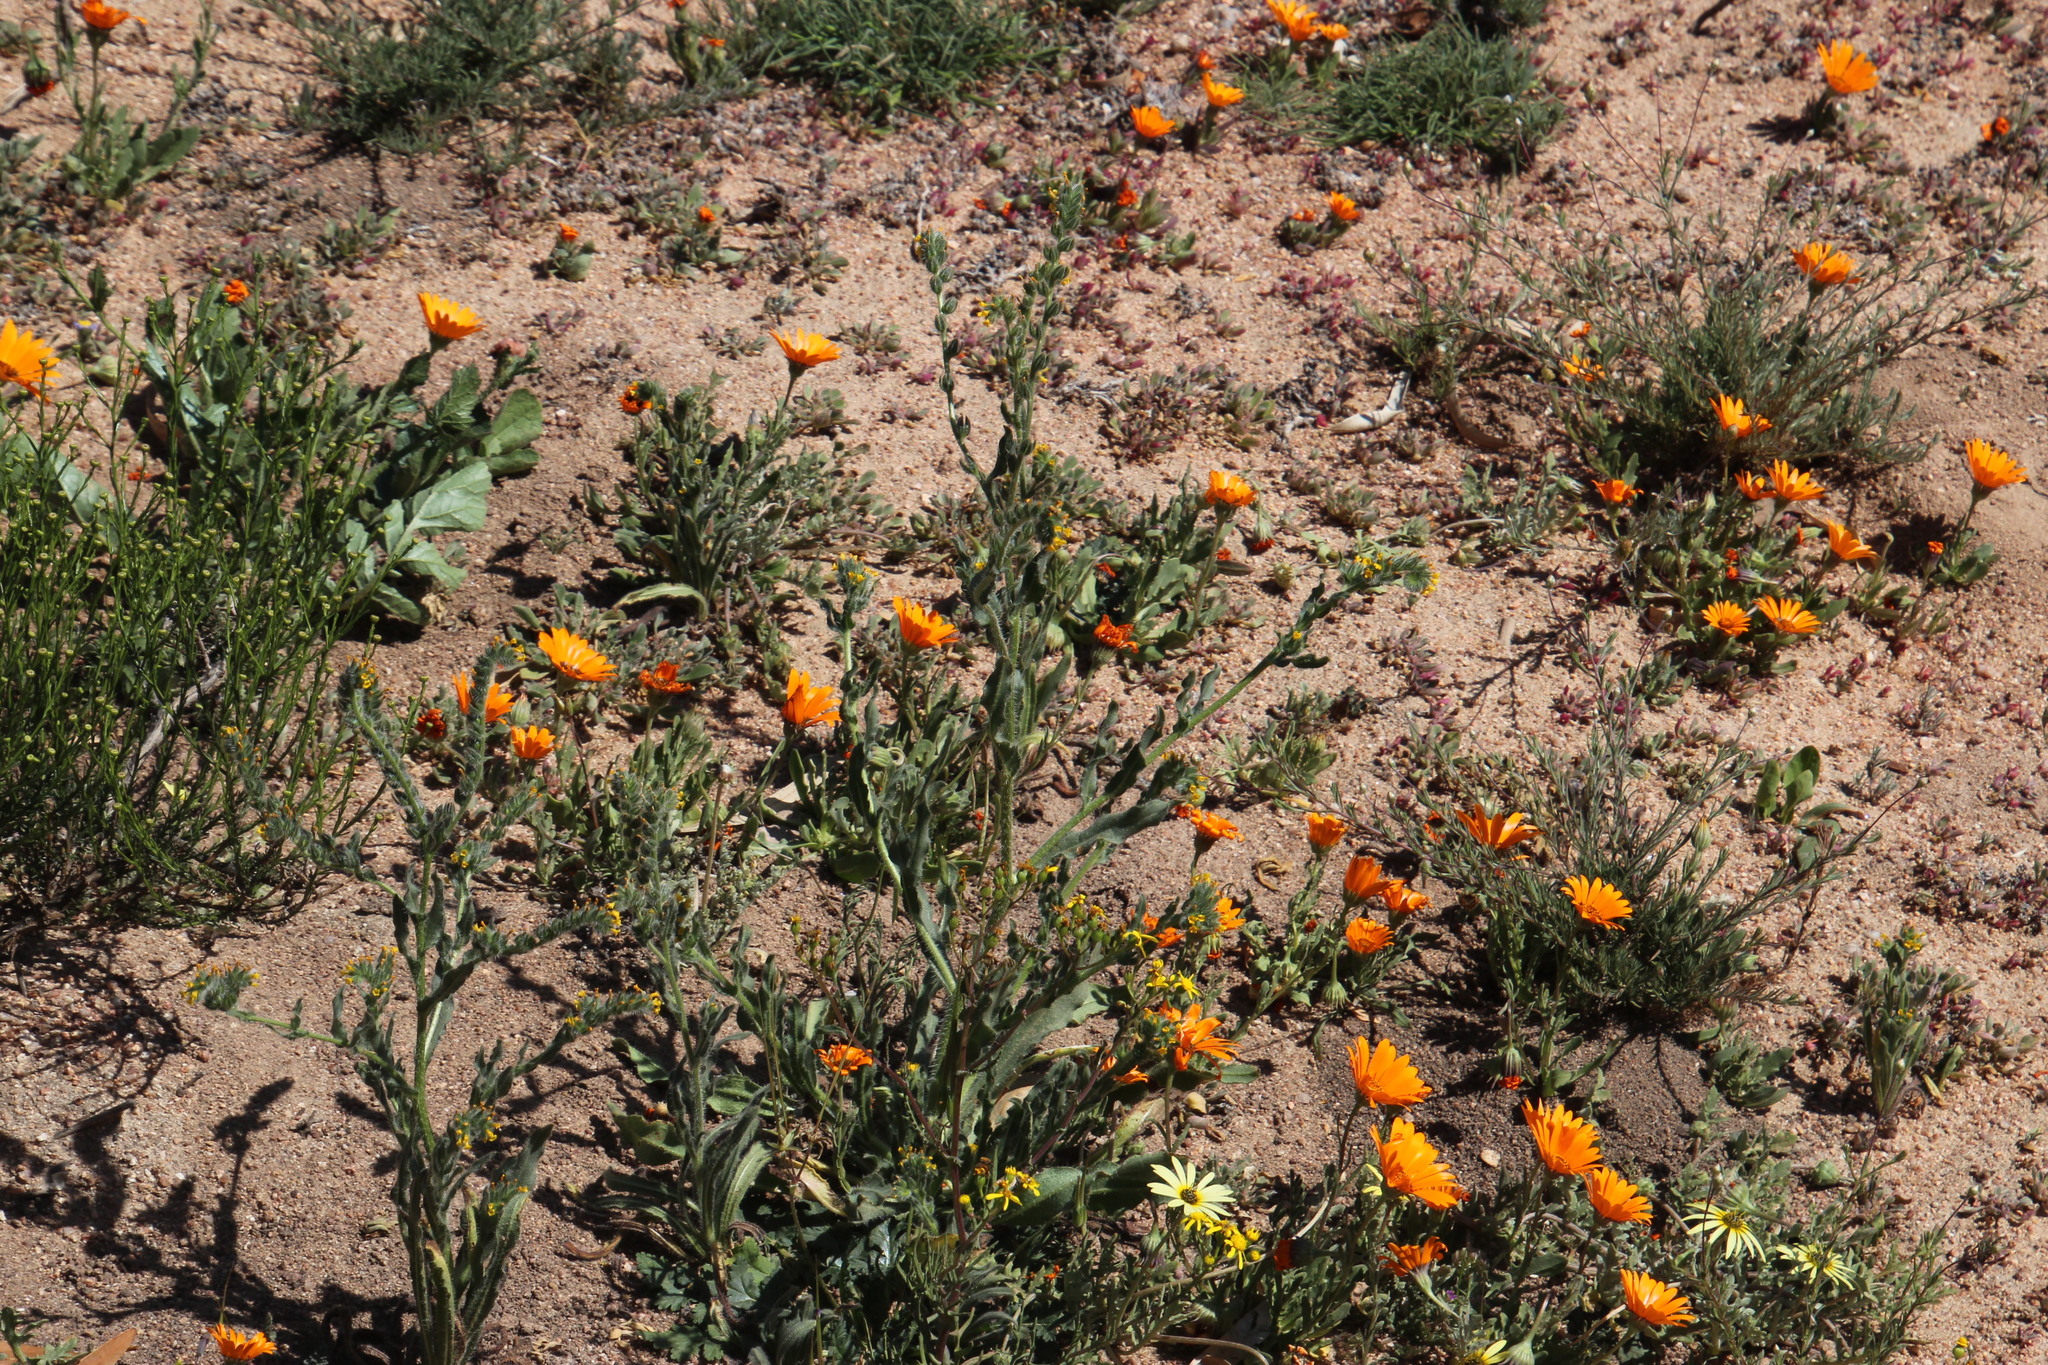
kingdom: Plantae
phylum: Tracheophyta
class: Magnoliopsida
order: Boraginales
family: Boraginaceae
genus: Amsinckia
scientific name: Amsinckia menziesii
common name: Menzies' fiddleneck
